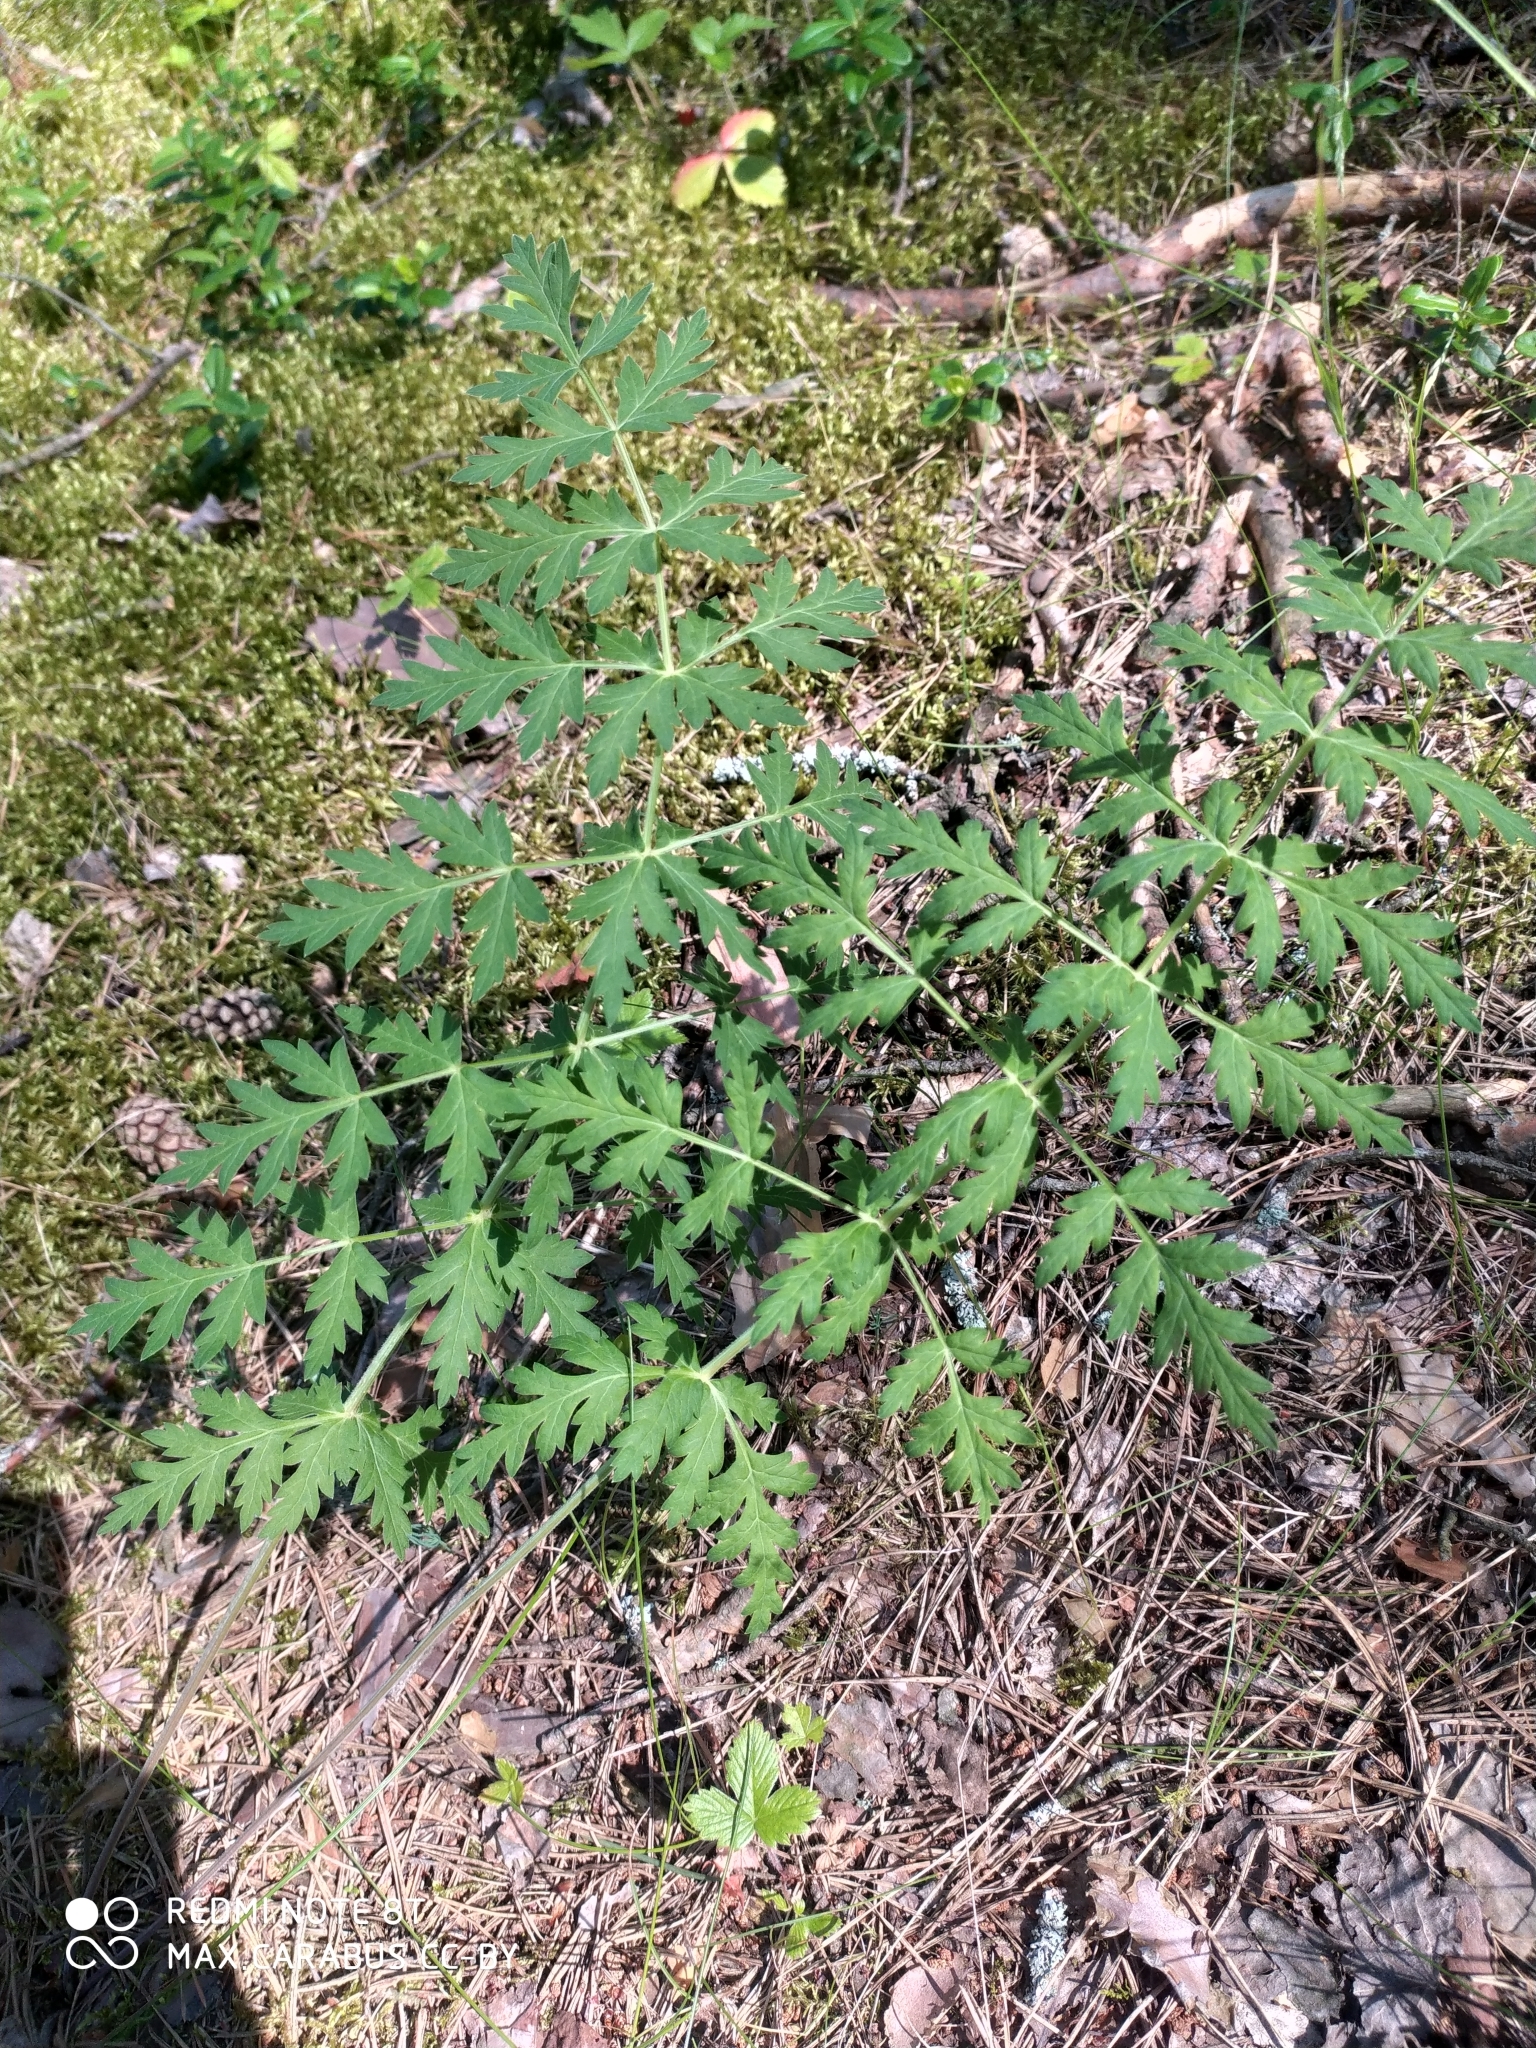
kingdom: Plantae
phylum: Tracheophyta
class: Magnoliopsida
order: Apiales
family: Apiaceae
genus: Seseli
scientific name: Seseli libanotis
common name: Mooncarrot
